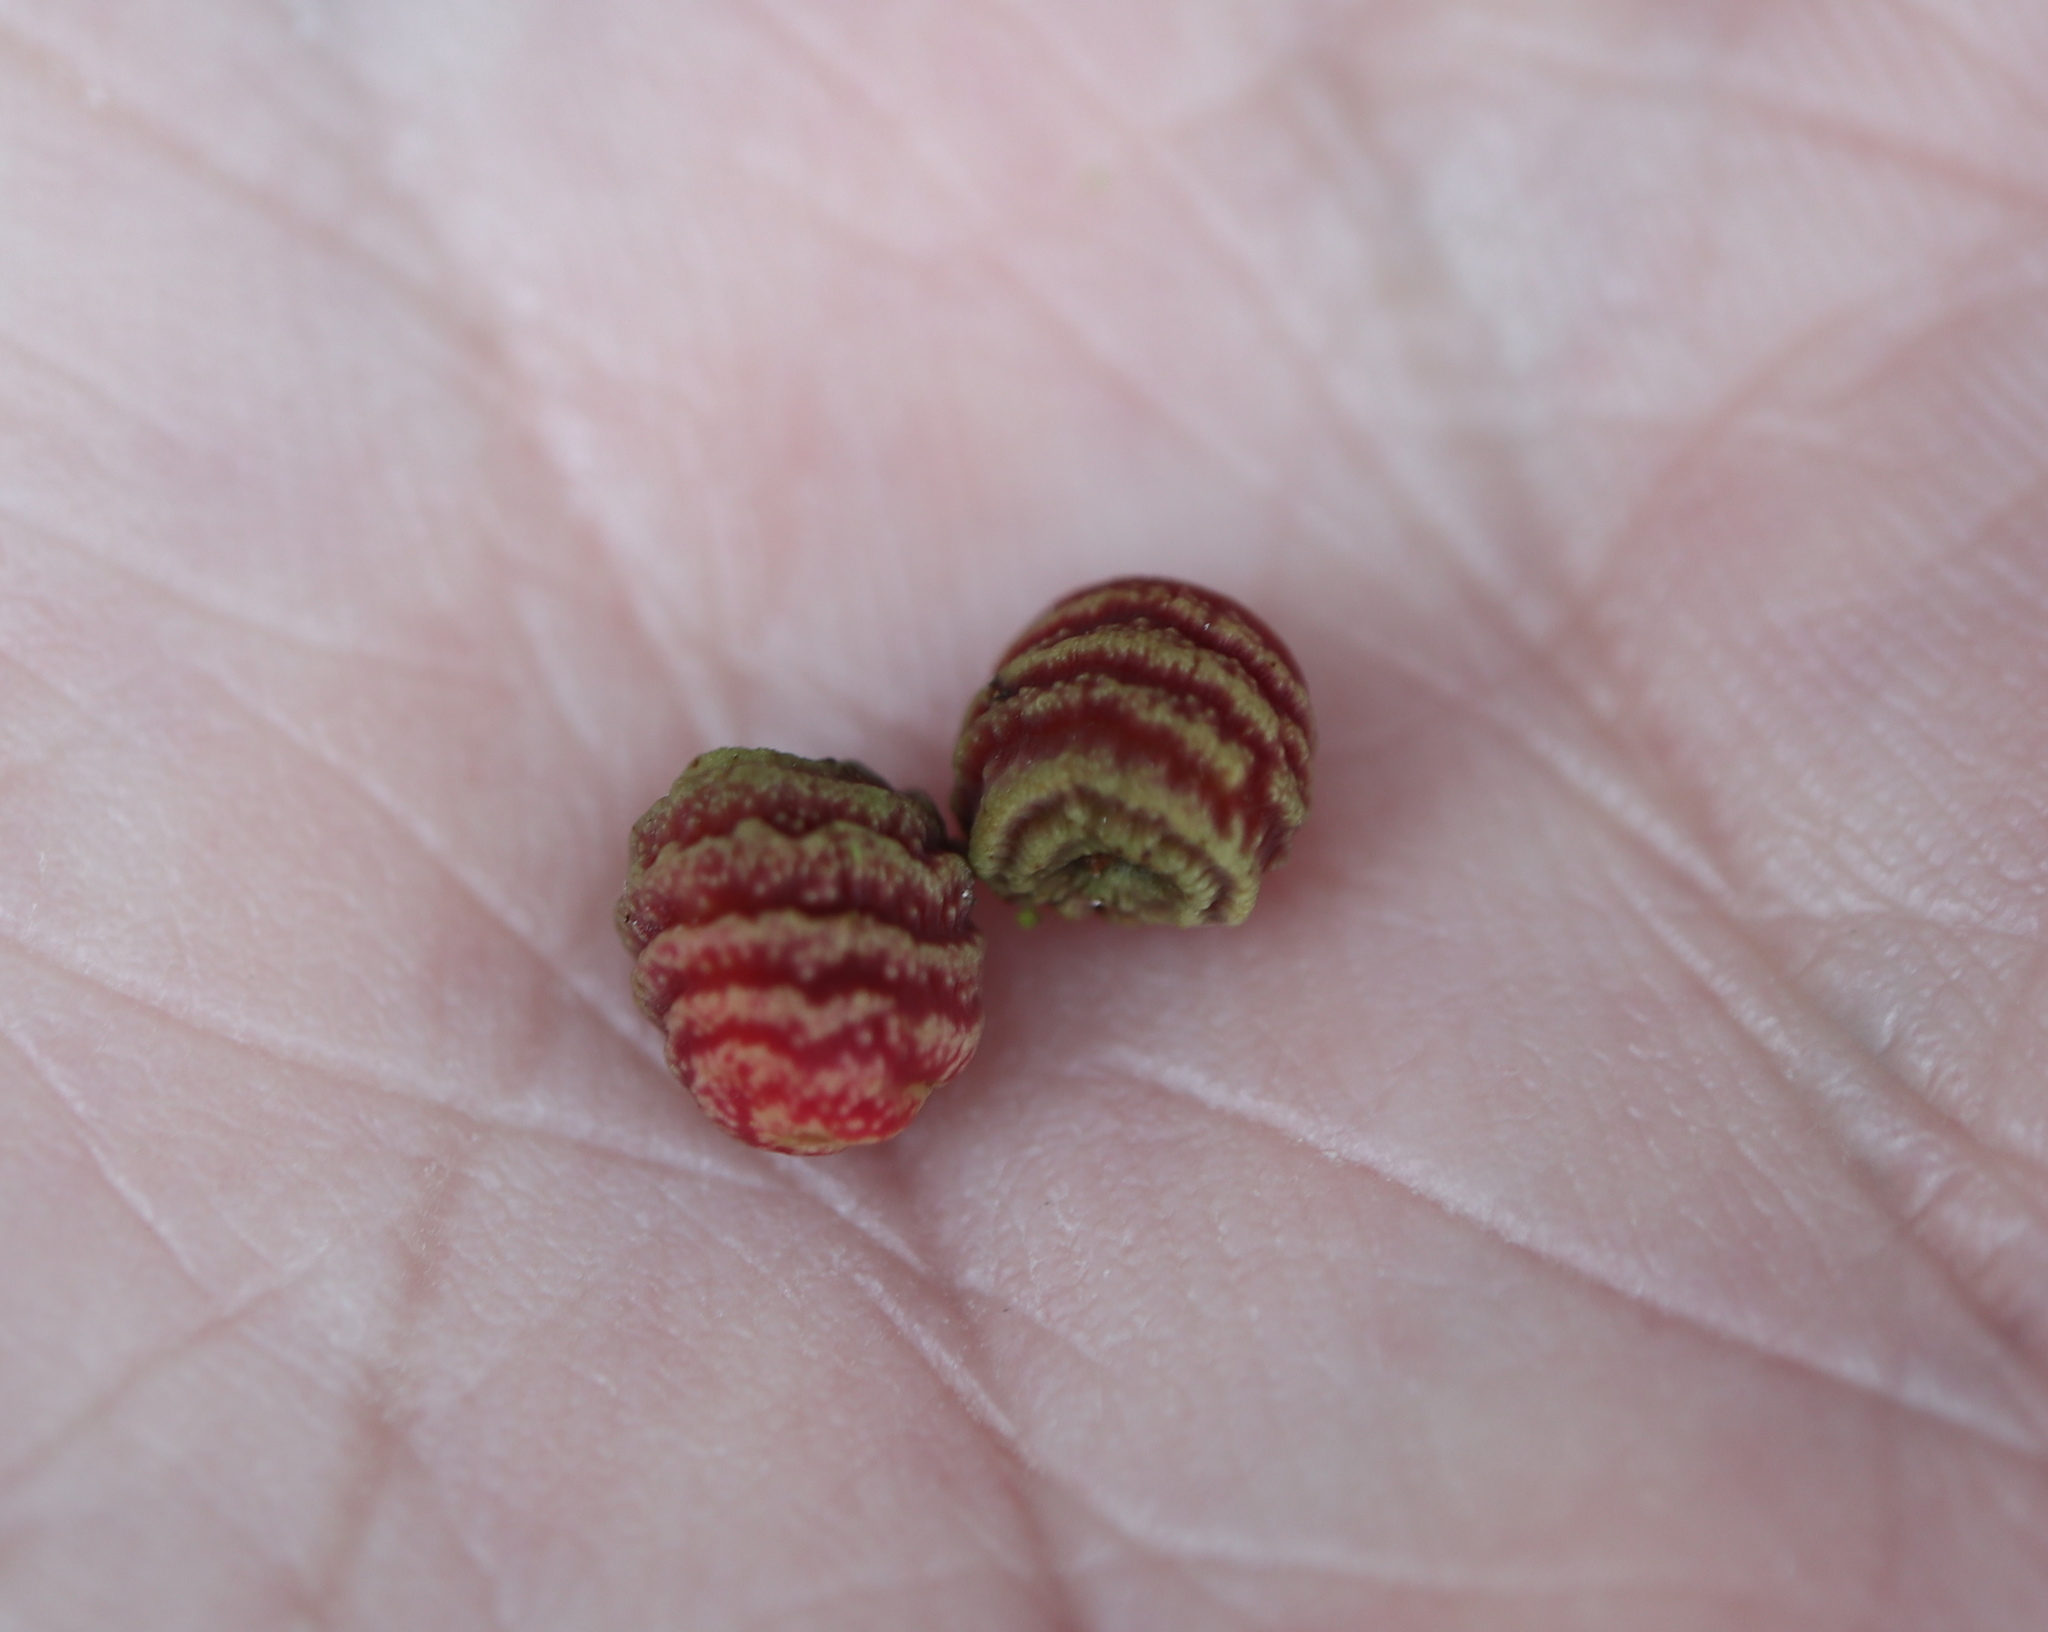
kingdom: Animalia
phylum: Arthropoda
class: Insecta
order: Hymenoptera
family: Cynipidae
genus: Kokkocynips
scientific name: Kokkocynips difficilis
